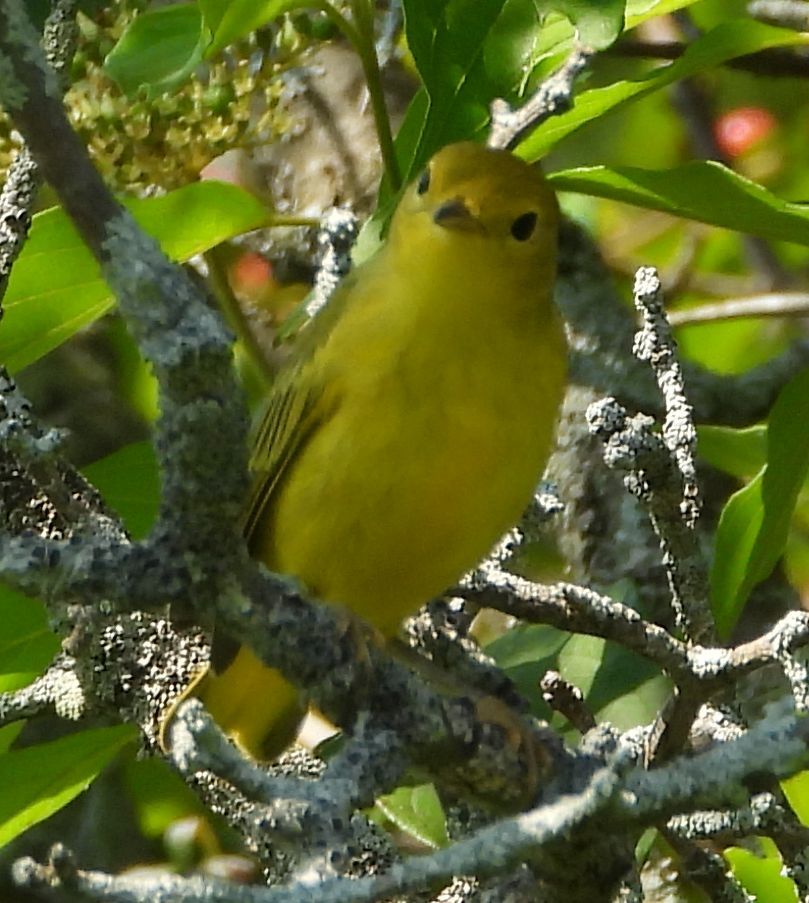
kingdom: Animalia
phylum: Chordata
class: Aves
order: Passeriformes
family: Parulidae
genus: Setophaga
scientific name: Setophaga petechia
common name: Yellow warbler
